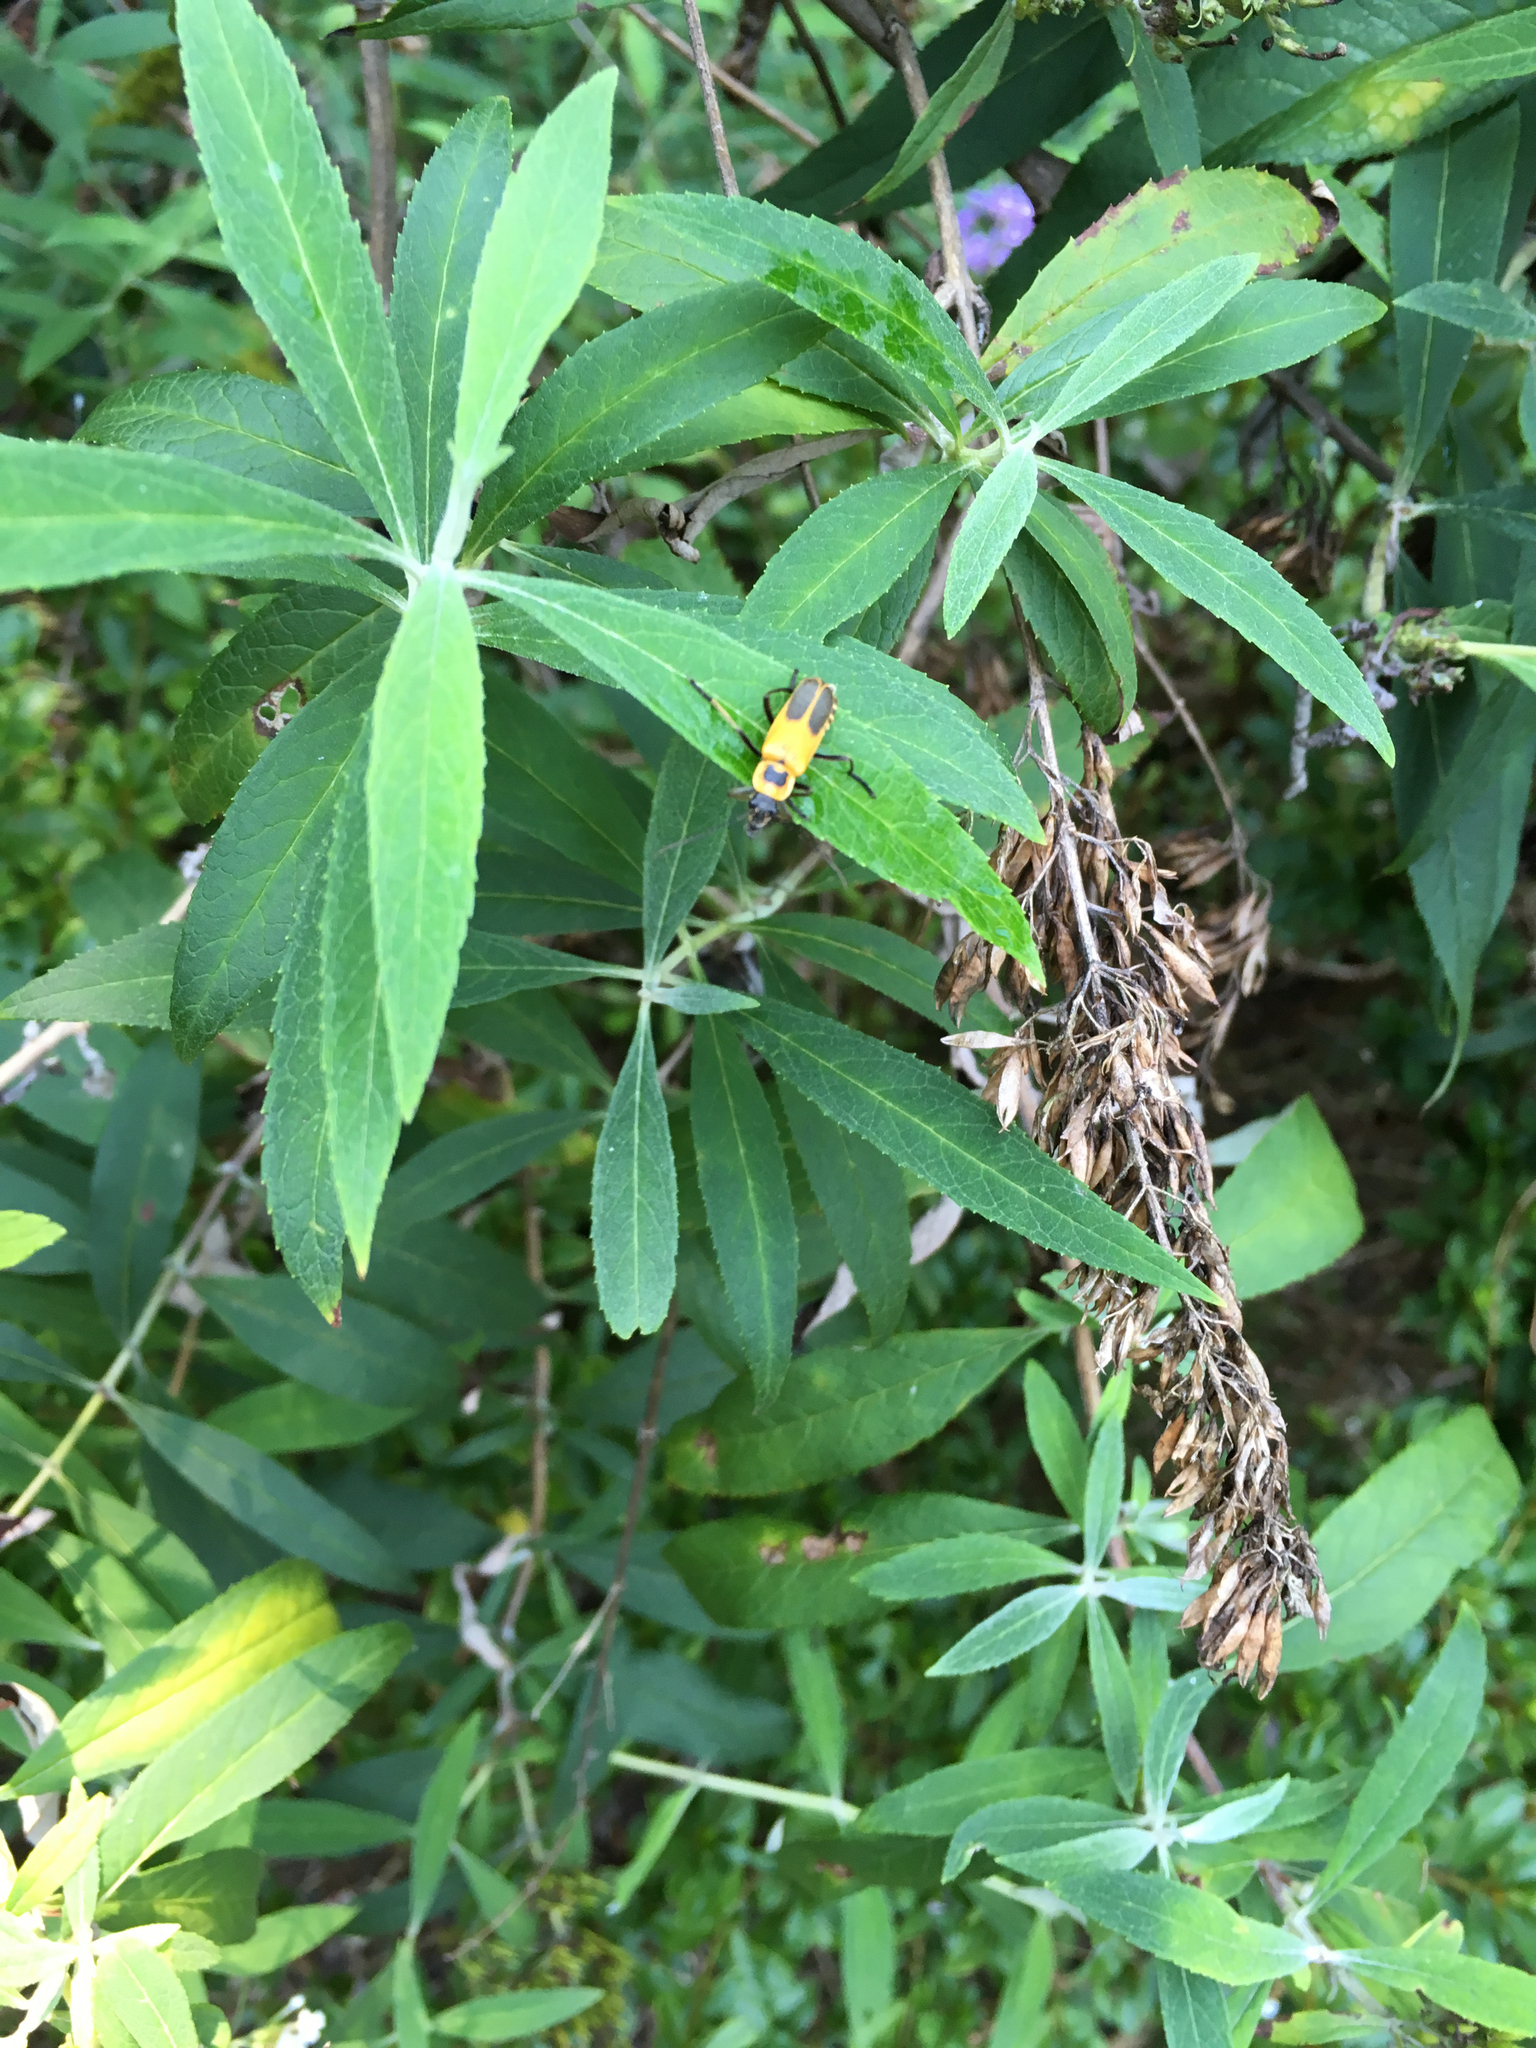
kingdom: Animalia
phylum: Arthropoda
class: Insecta
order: Coleoptera
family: Cantharidae
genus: Chauliognathus
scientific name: Chauliognathus pensylvanicus
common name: Goldenrod soldier beetle
